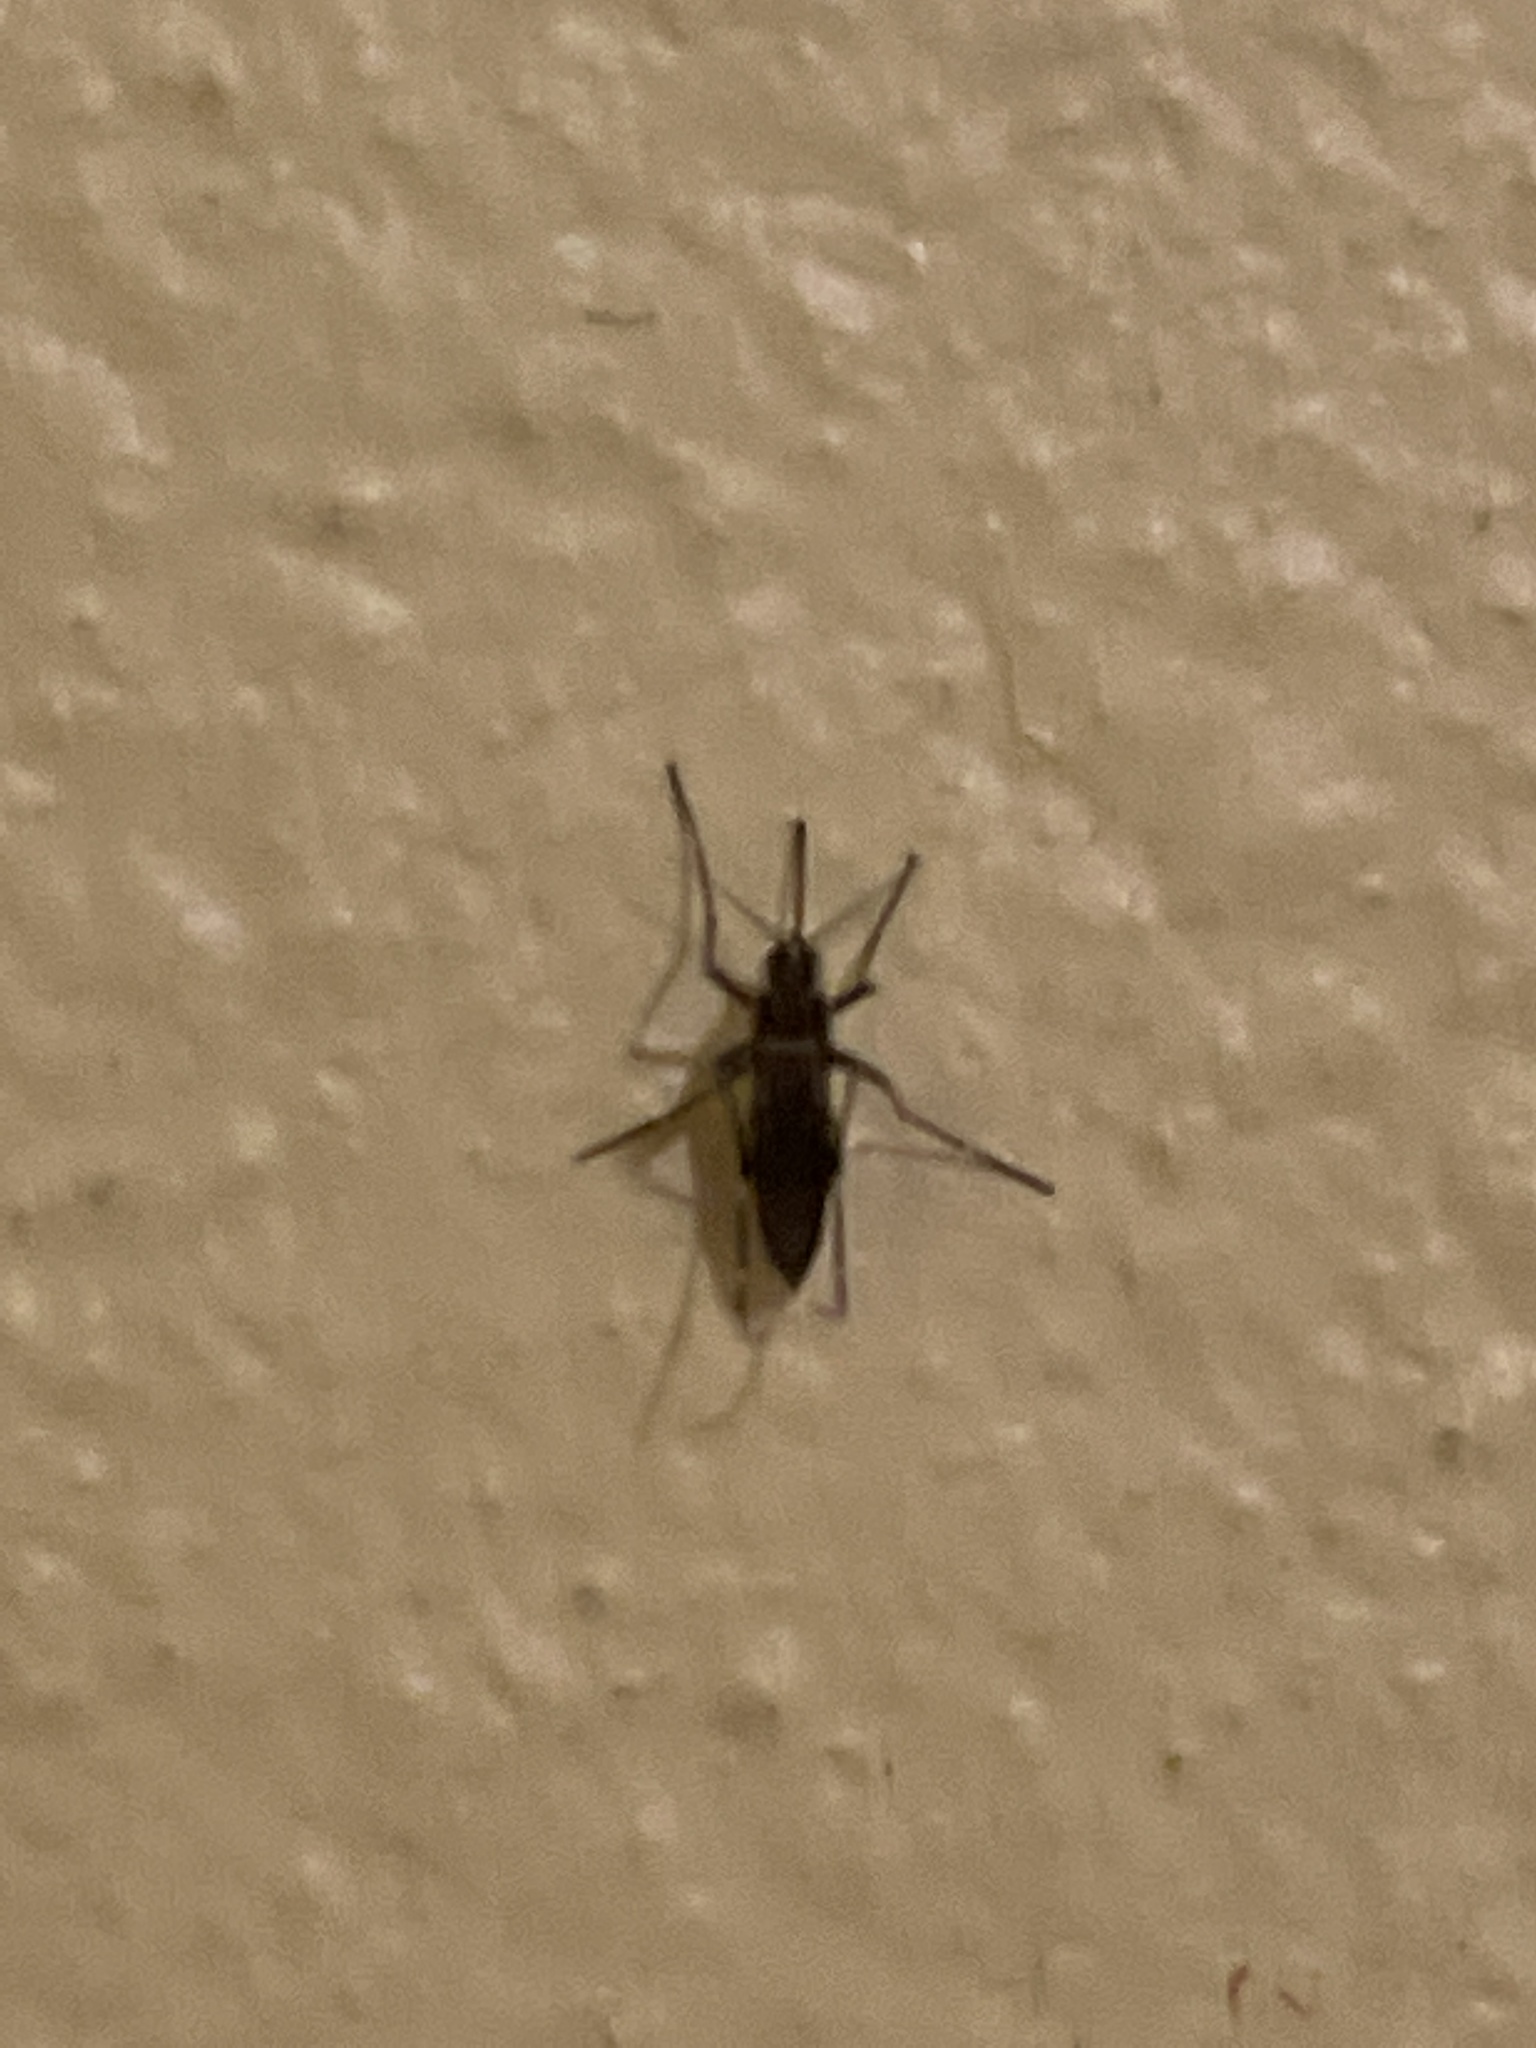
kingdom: Animalia
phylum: Arthropoda
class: Insecta
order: Diptera
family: Culicidae
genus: Aedes
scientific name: Aedes aegypti
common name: Yellow fever mosquito
